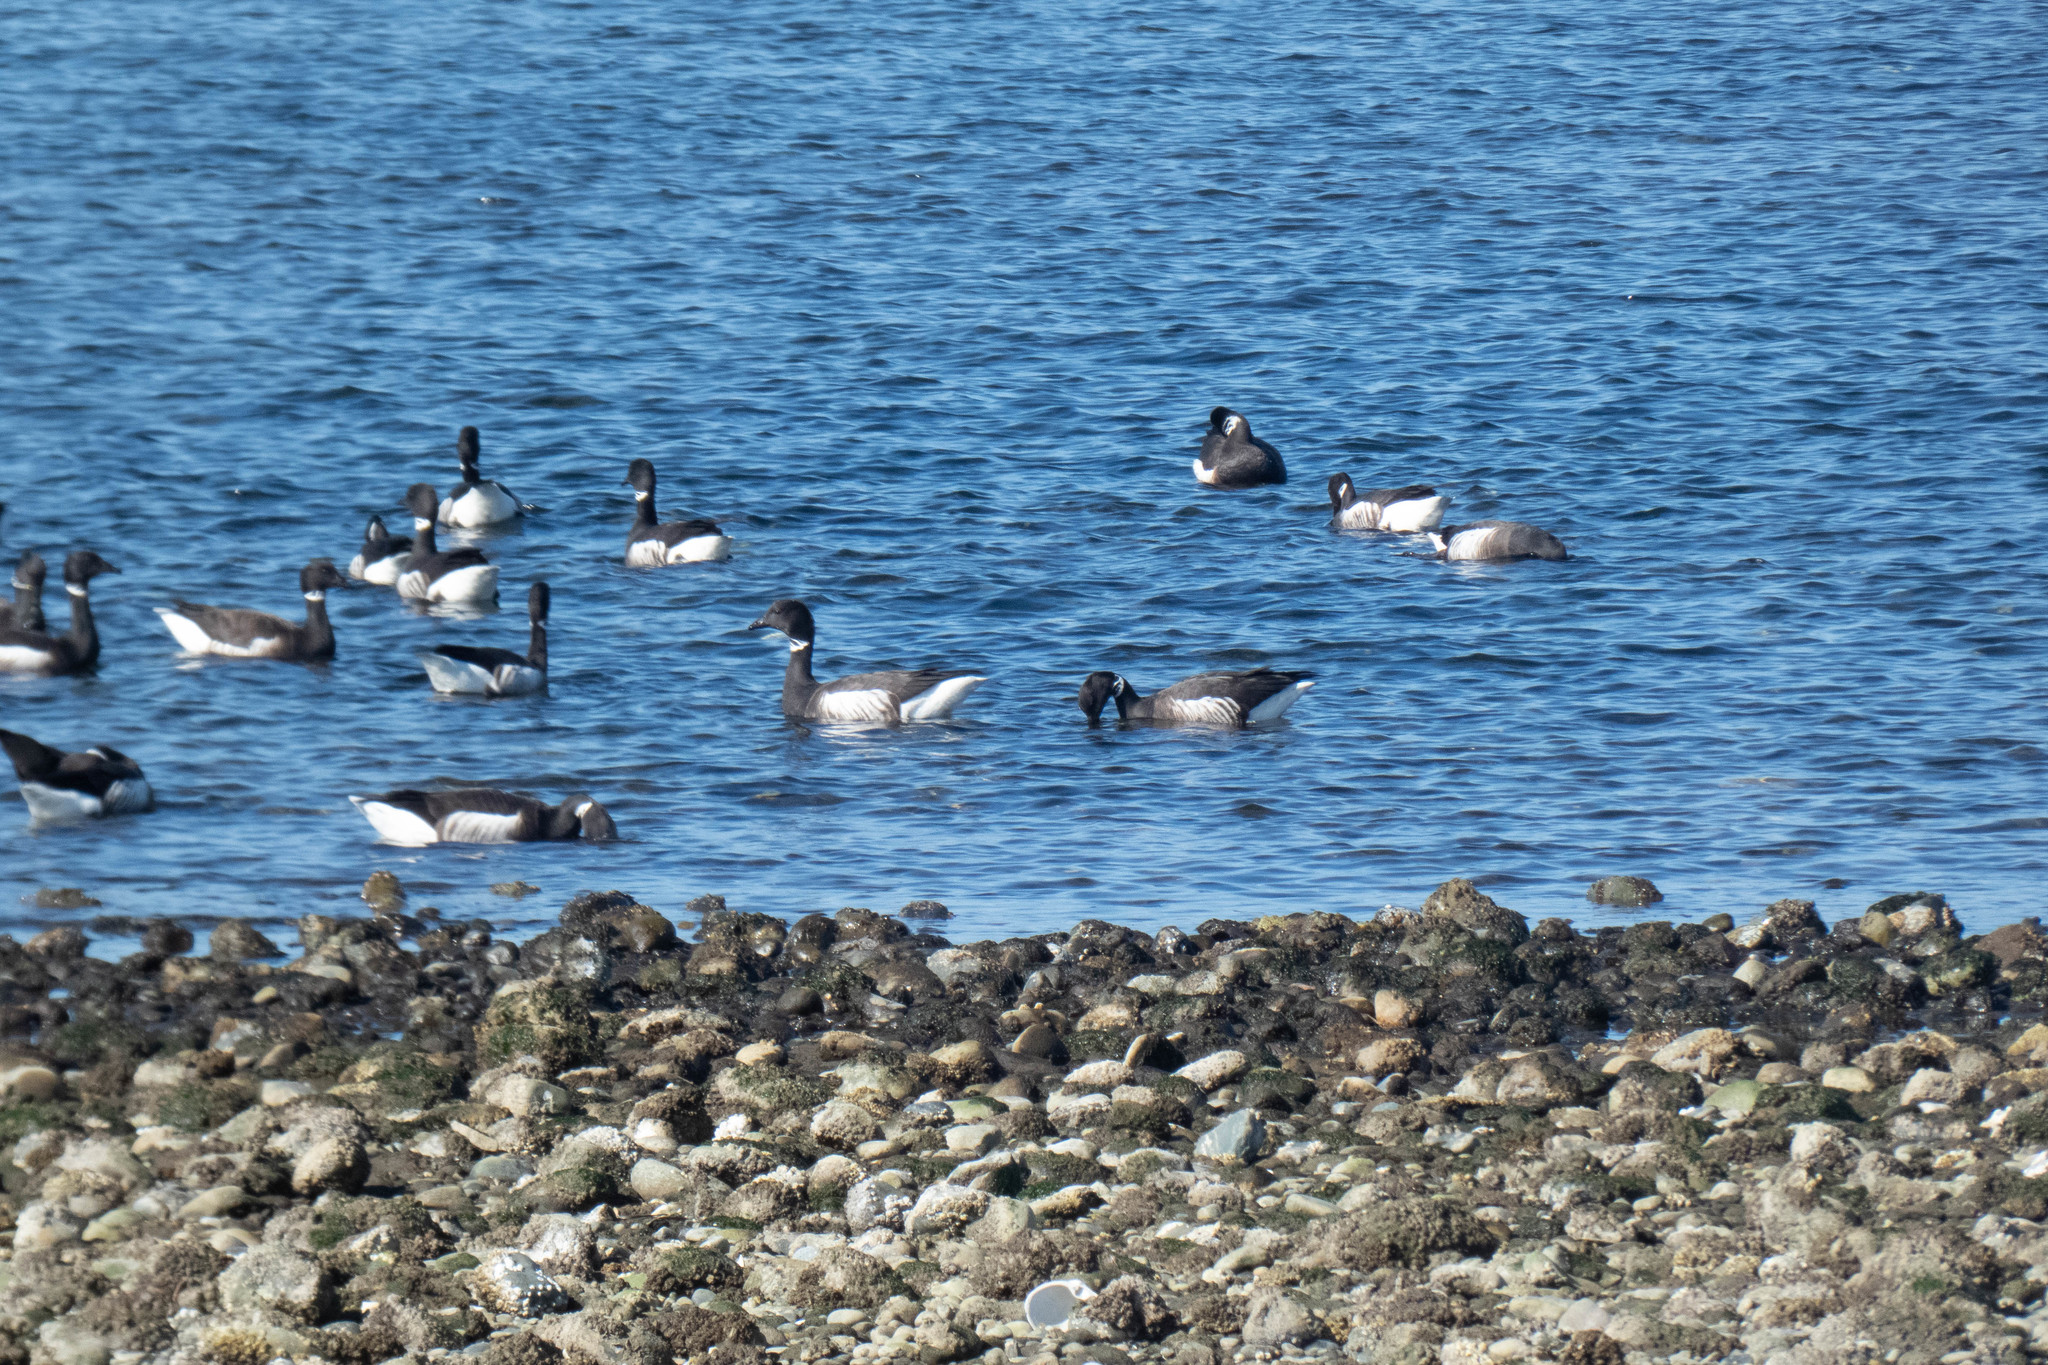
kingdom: Animalia
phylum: Chordata
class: Aves
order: Anseriformes
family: Anatidae
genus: Branta
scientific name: Branta bernicla
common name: Brant goose
